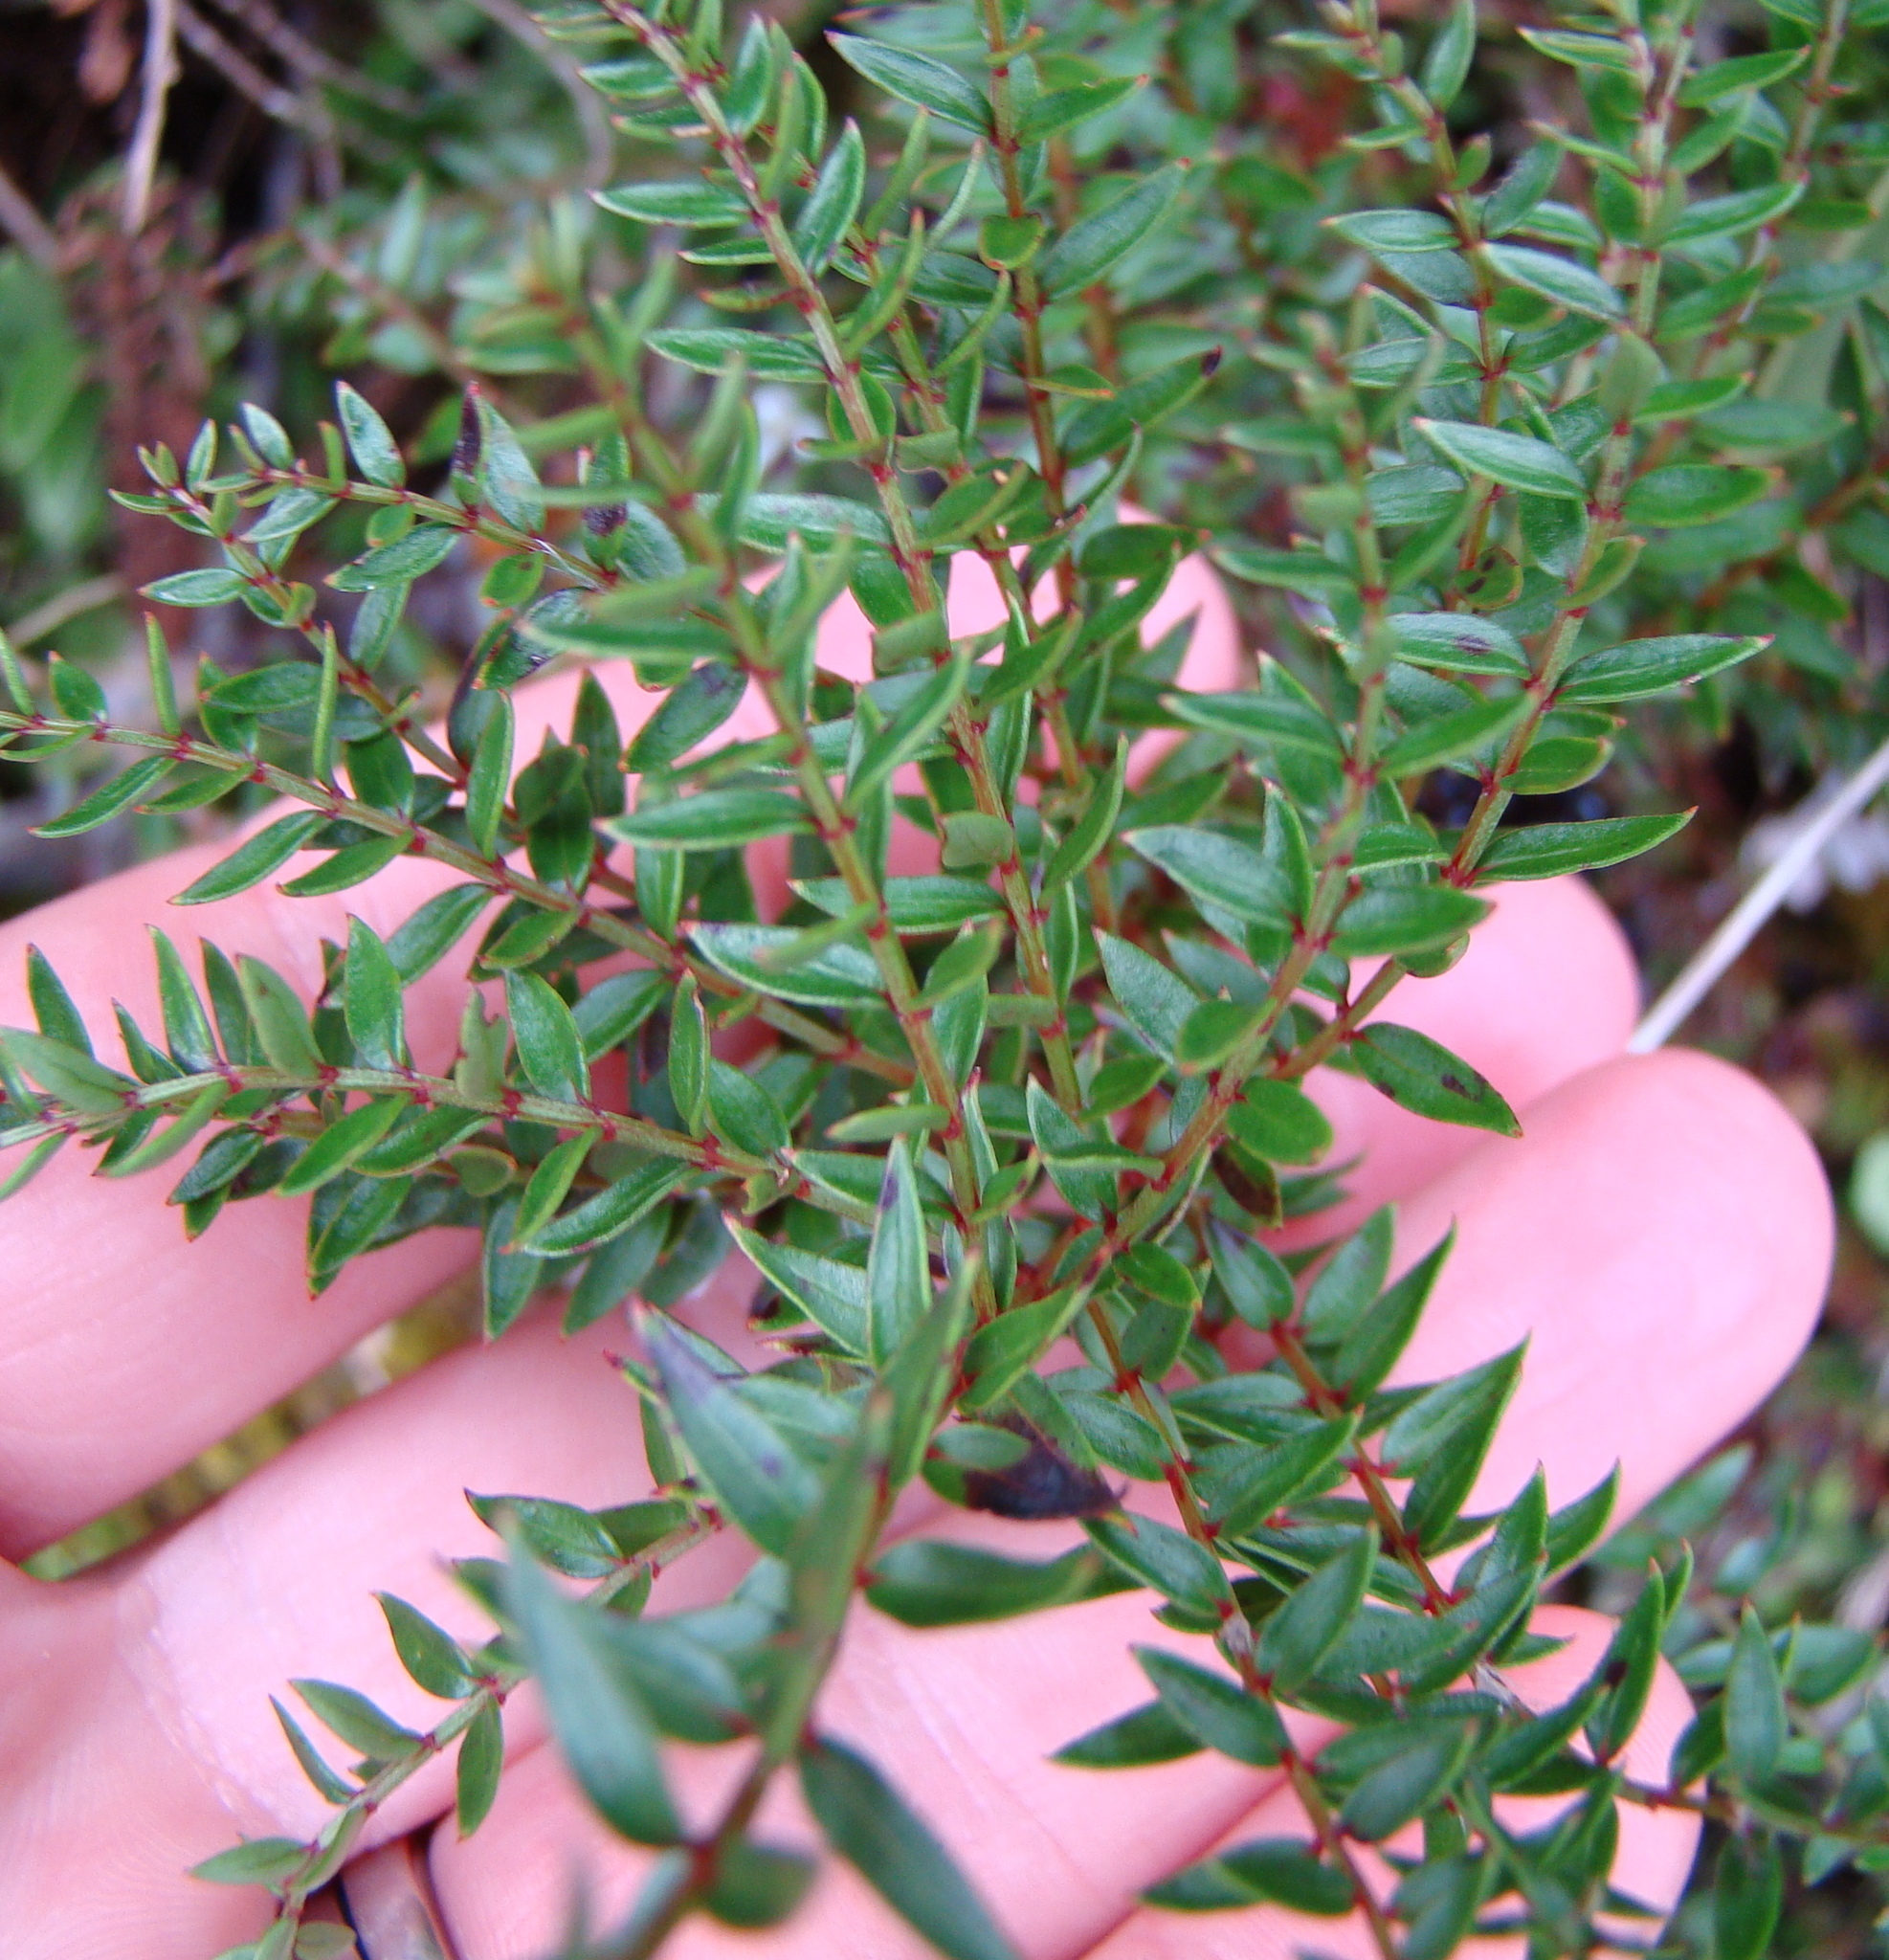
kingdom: Plantae
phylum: Tracheophyta
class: Magnoliopsida
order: Cucurbitales
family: Coriariaceae
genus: Coriaria
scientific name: Coriaria plumosa
